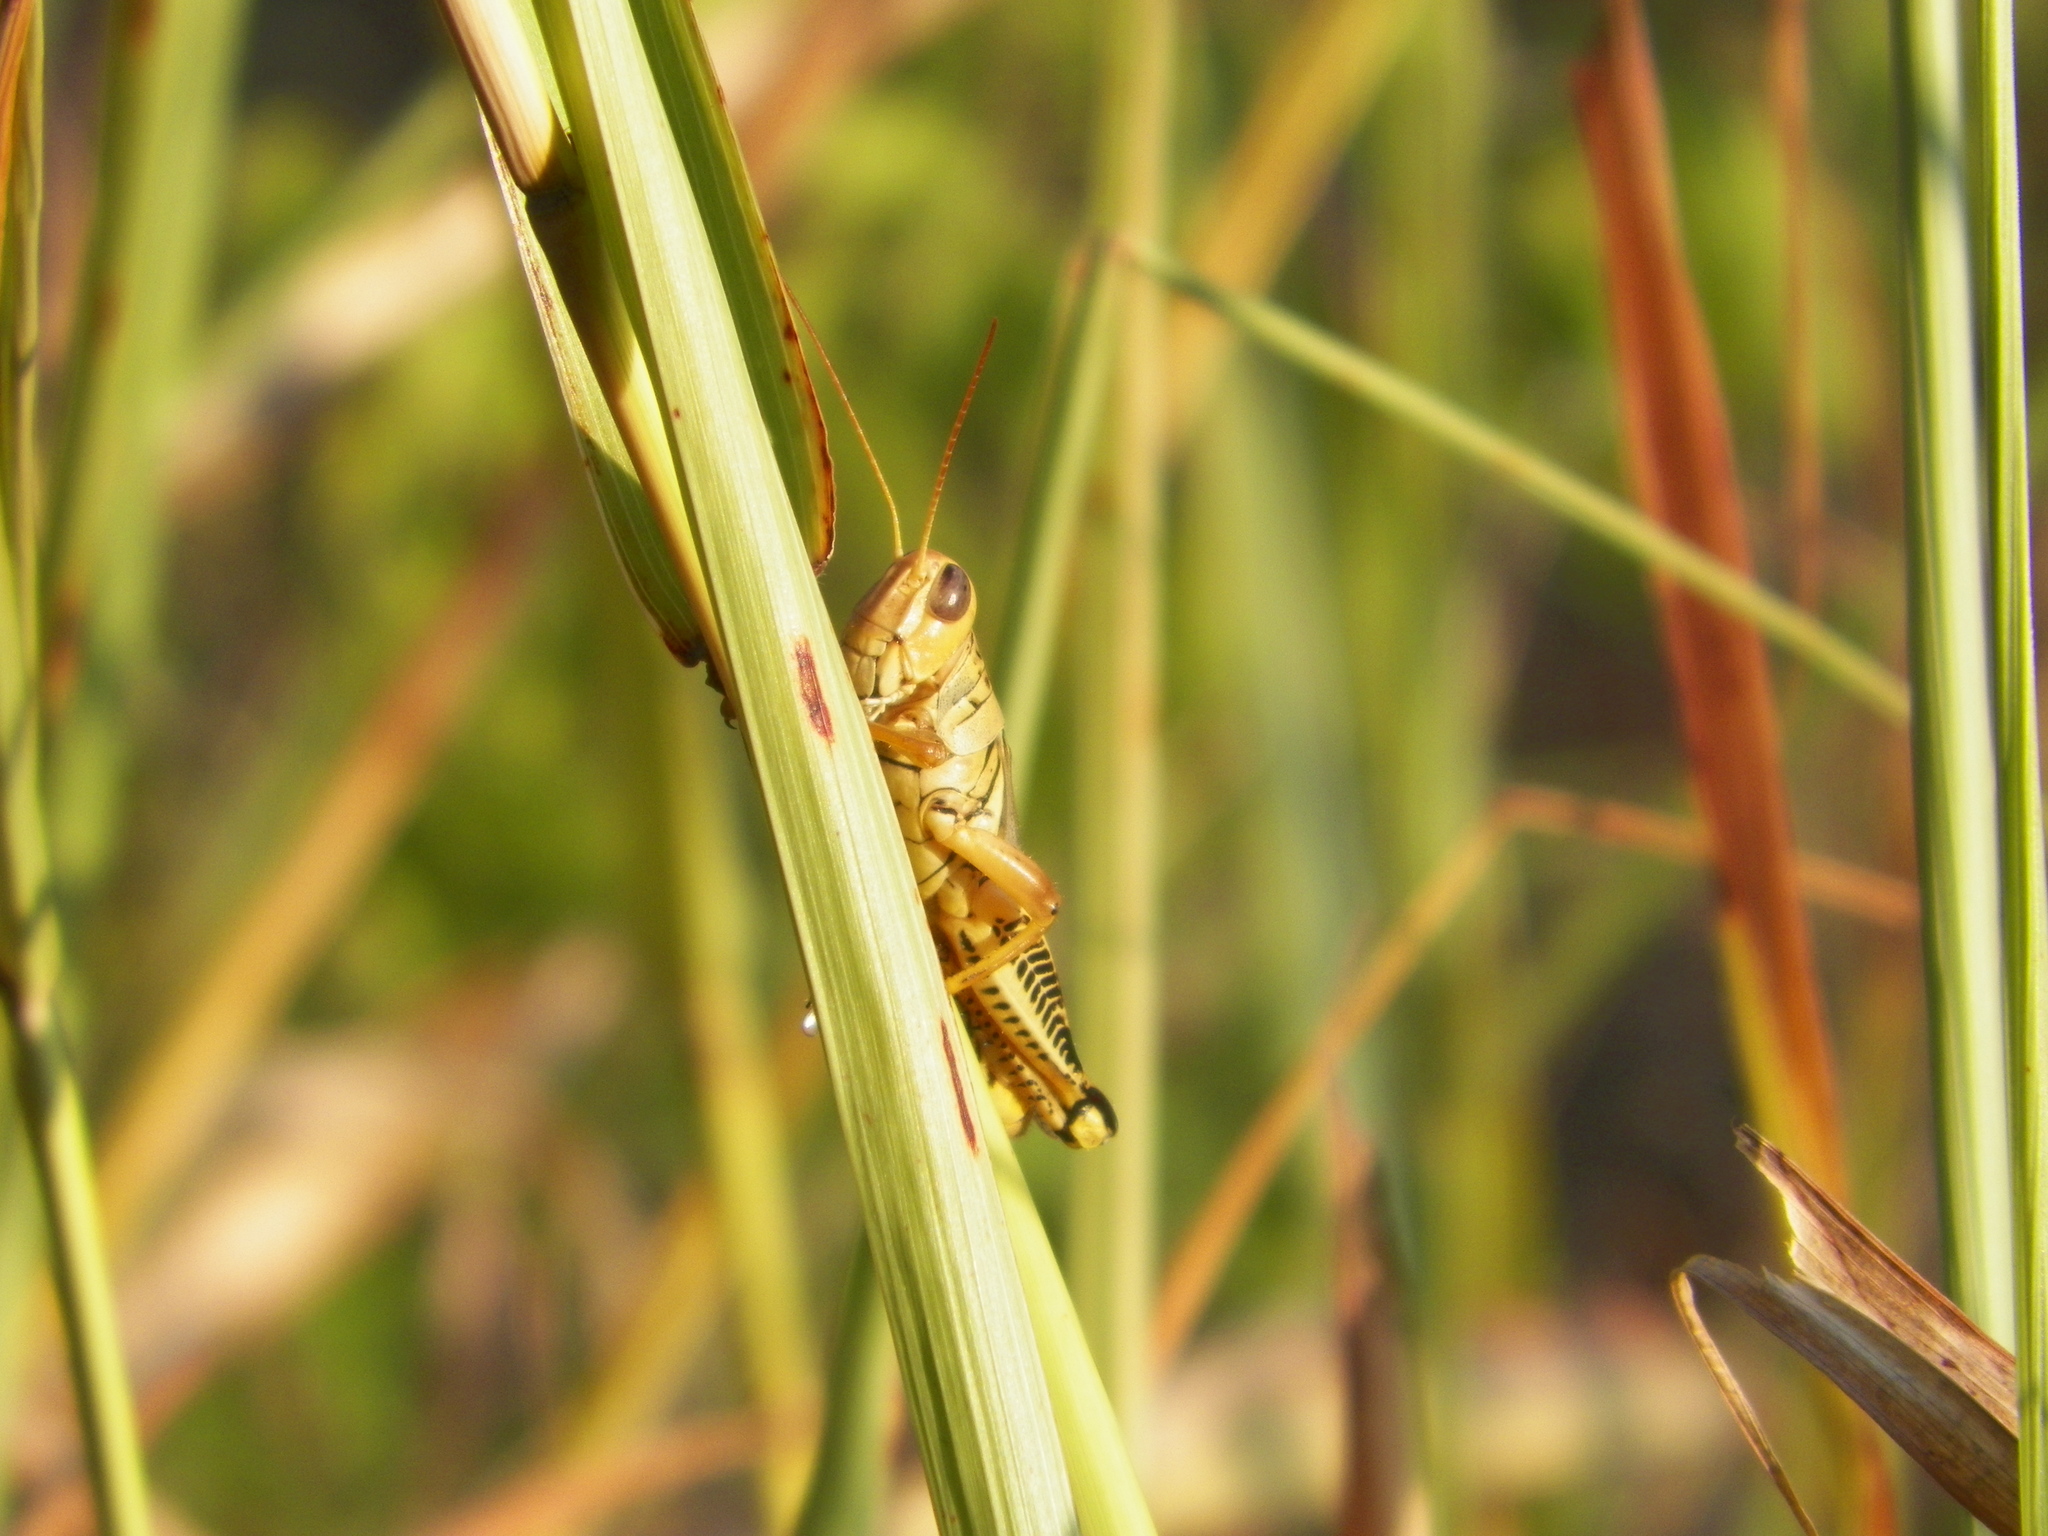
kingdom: Animalia
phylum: Arthropoda
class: Insecta
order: Orthoptera
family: Acrididae
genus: Melanoplus
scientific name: Melanoplus differentialis
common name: Differential grasshopper
